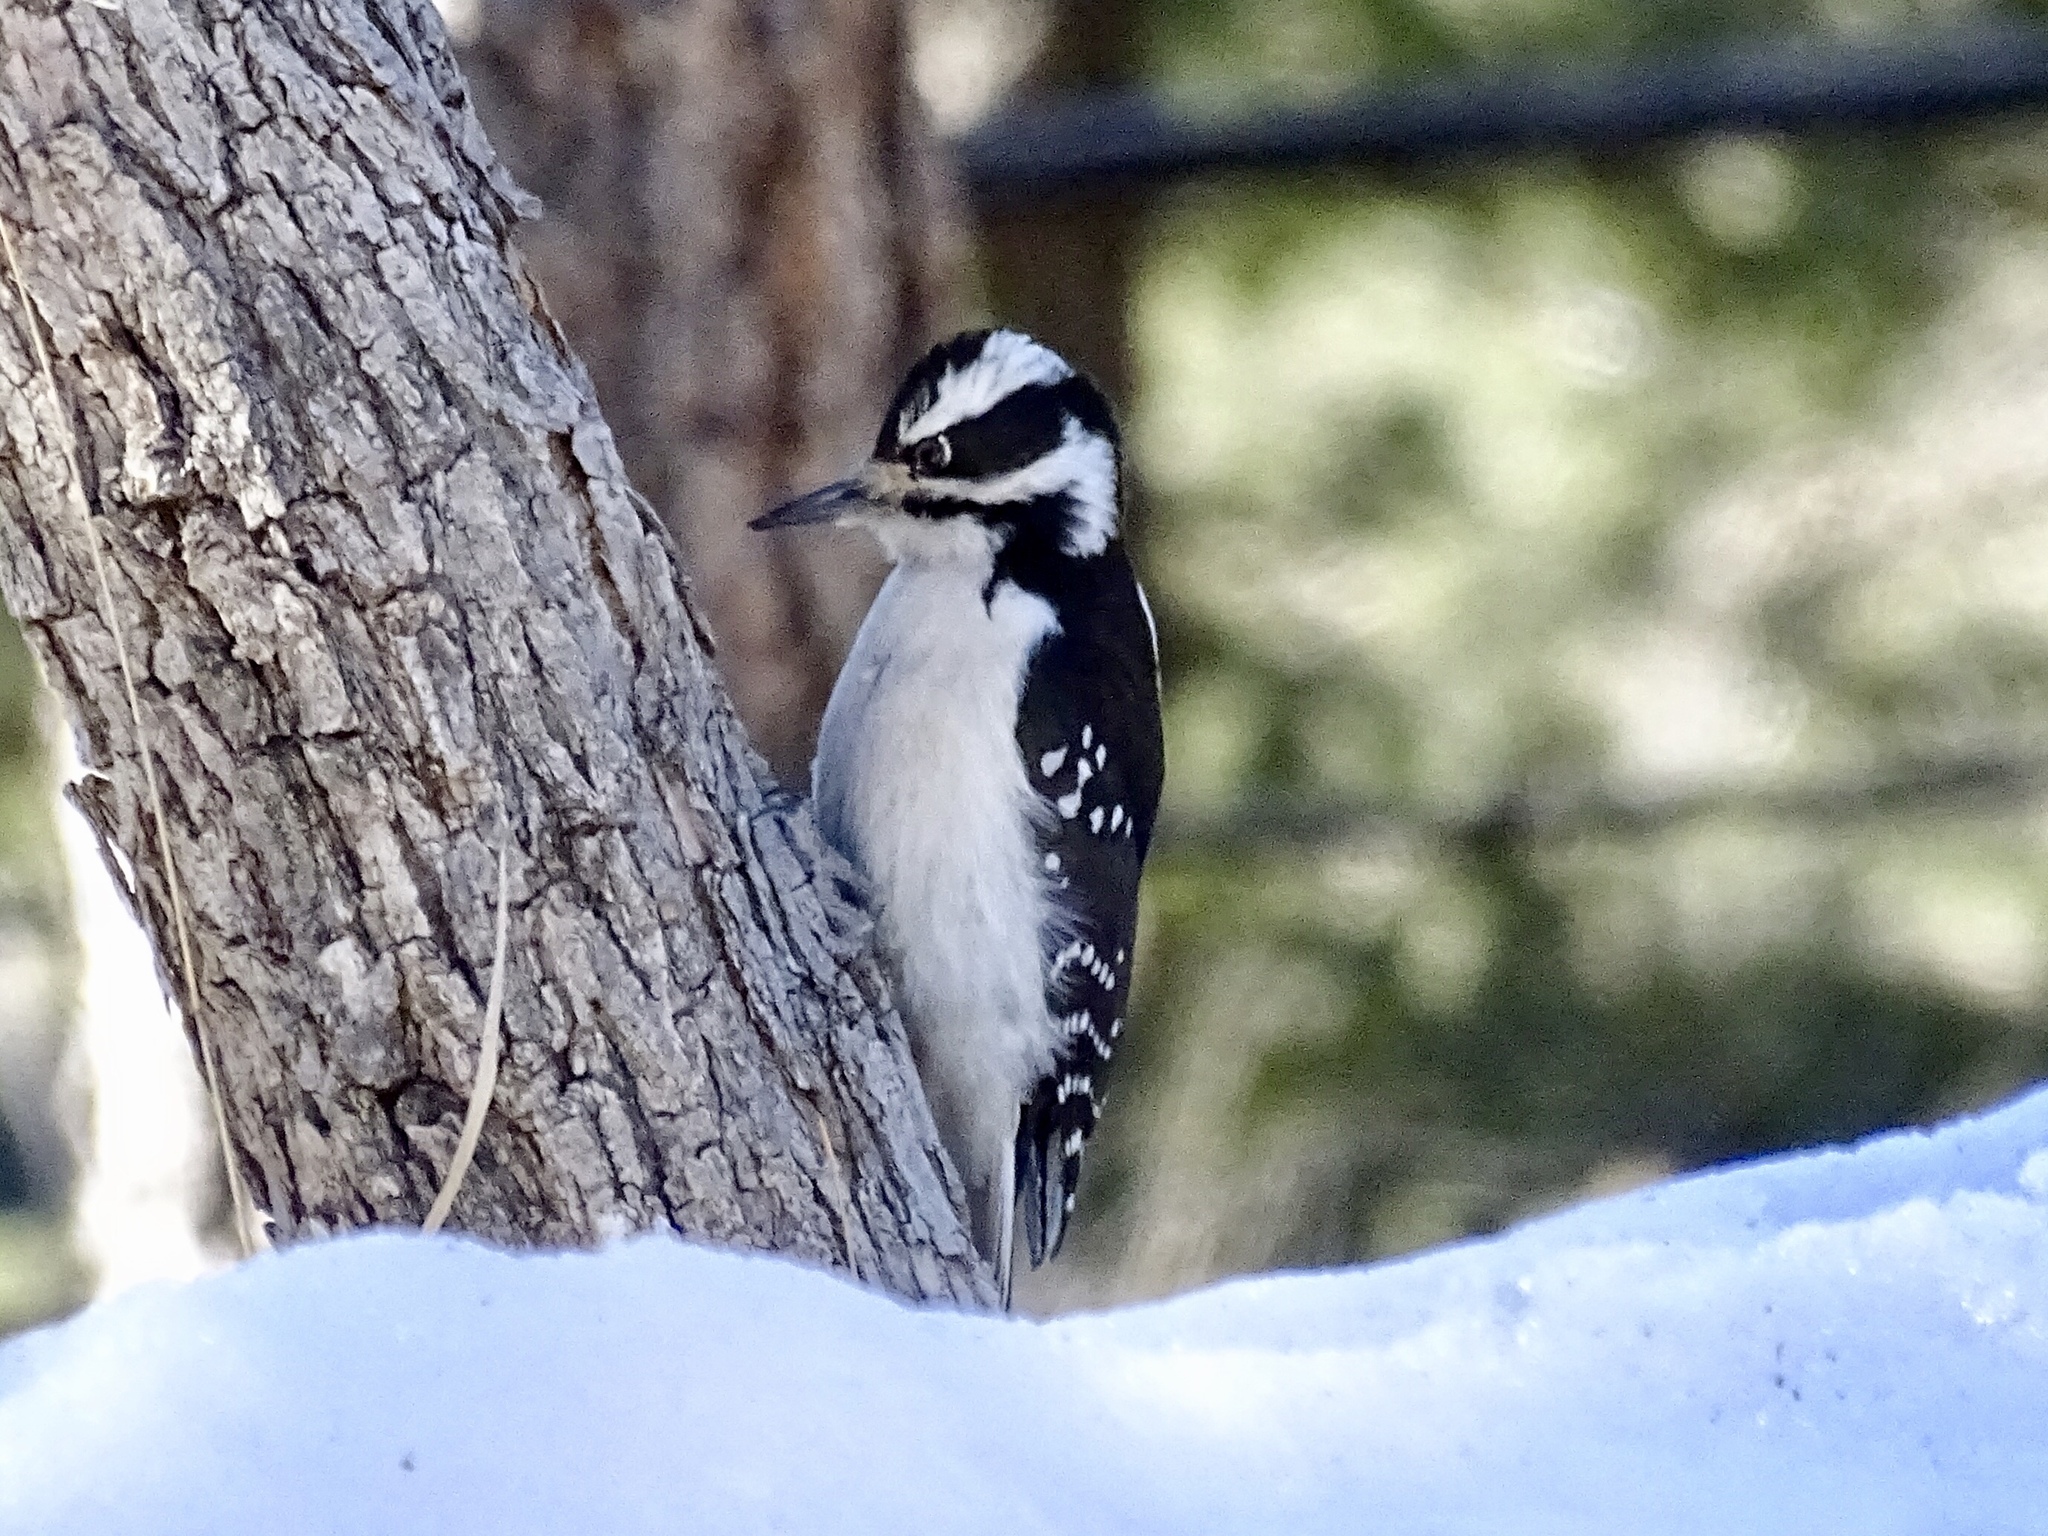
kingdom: Animalia
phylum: Chordata
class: Aves
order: Piciformes
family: Picidae
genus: Leuconotopicus
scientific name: Leuconotopicus villosus
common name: Hairy woodpecker
